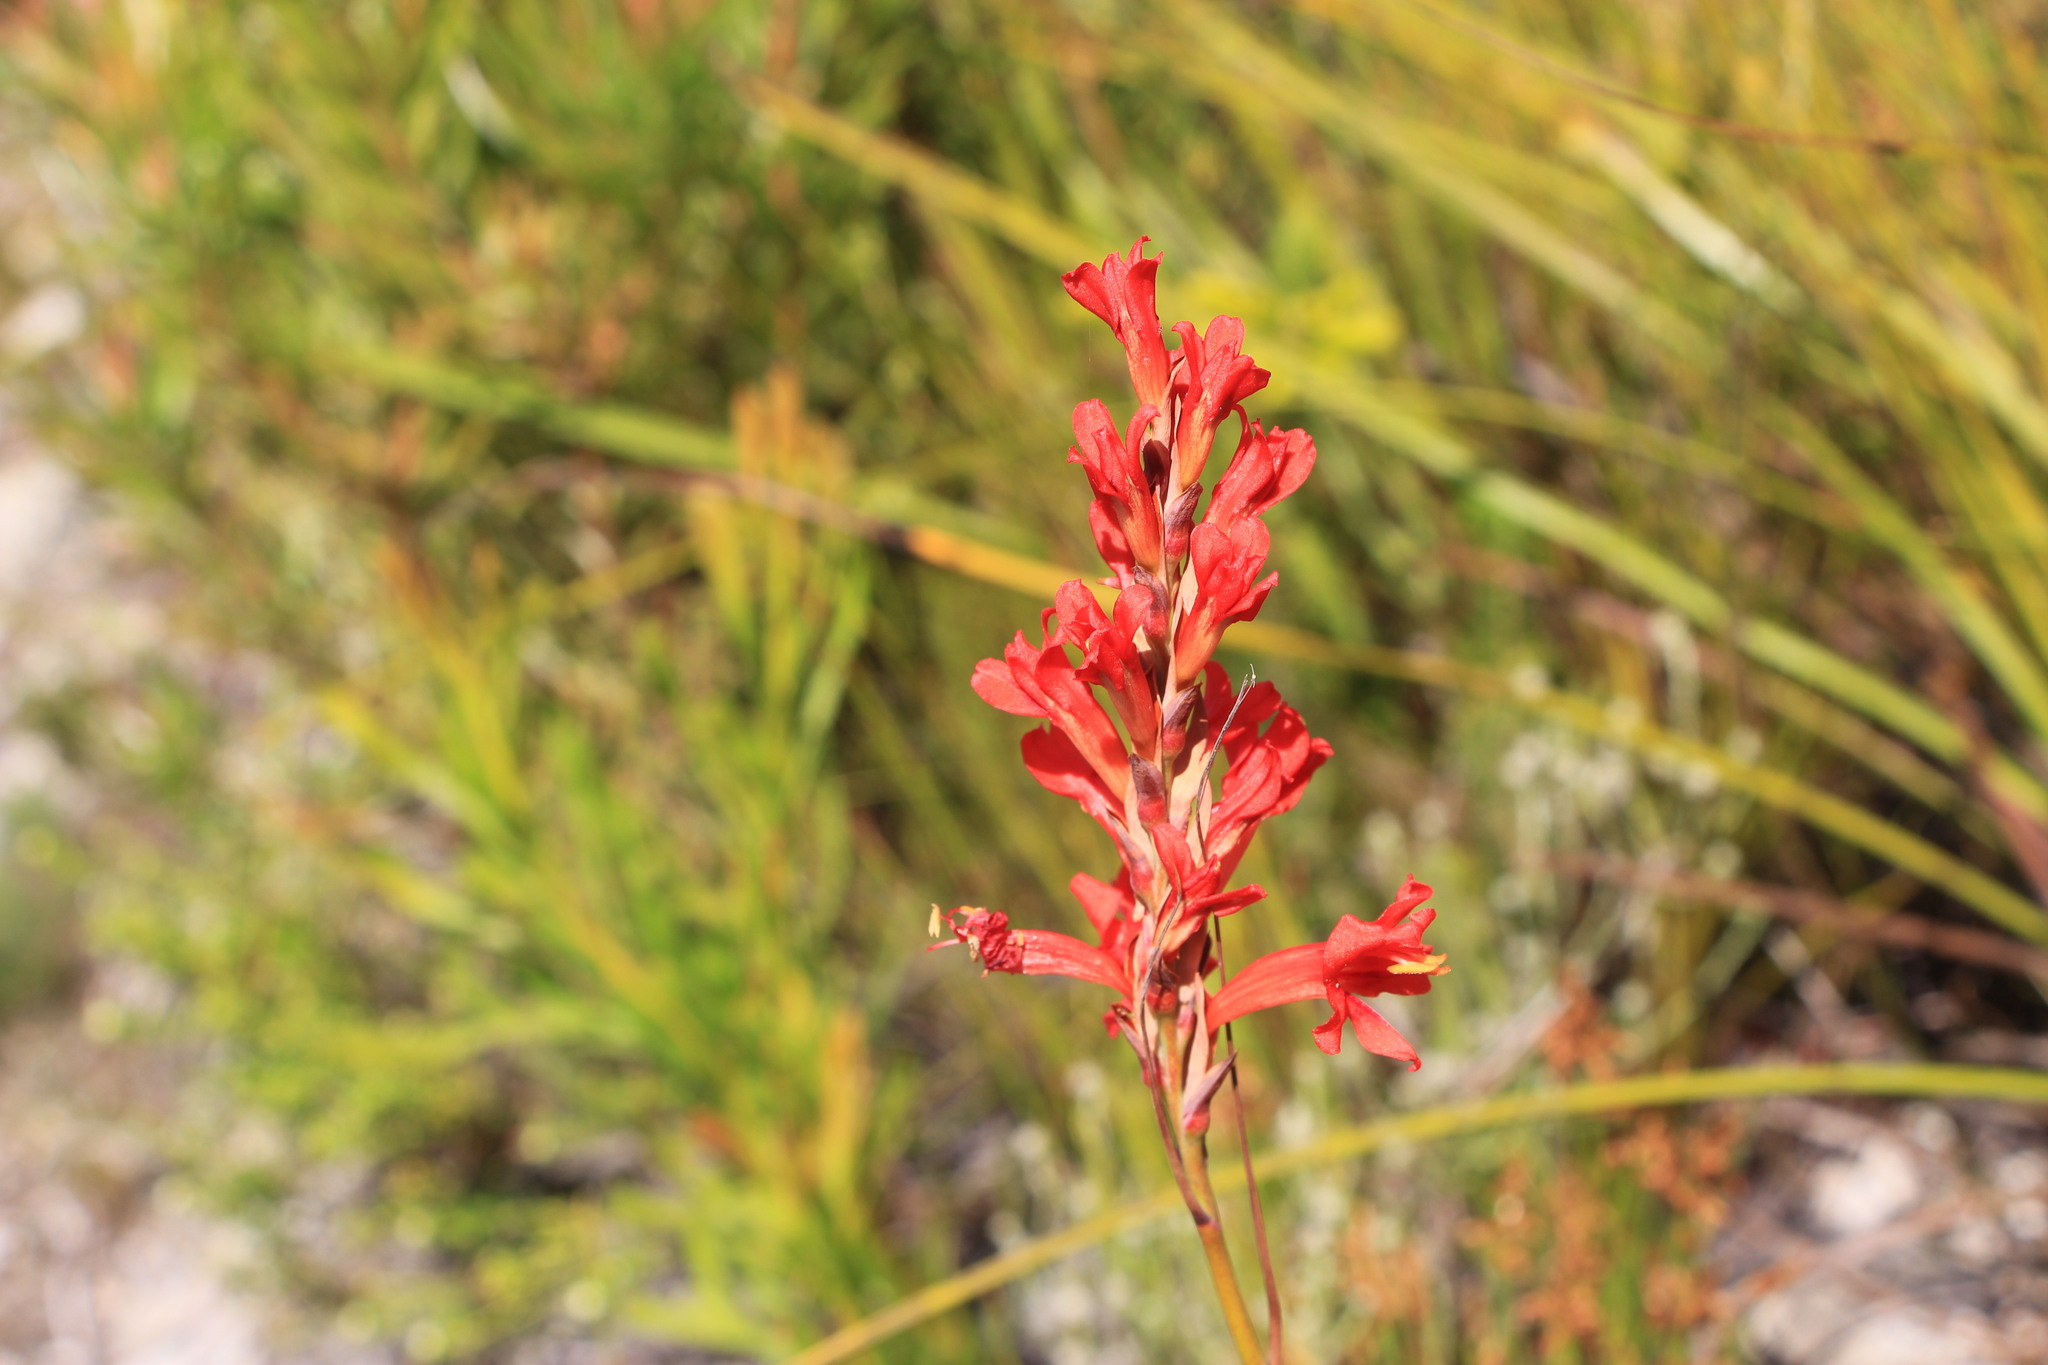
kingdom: Plantae
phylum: Tracheophyta
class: Liliopsida
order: Asparagales
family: Iridaceae
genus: Tritoniopsis
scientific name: Tritoniopsis triticea
